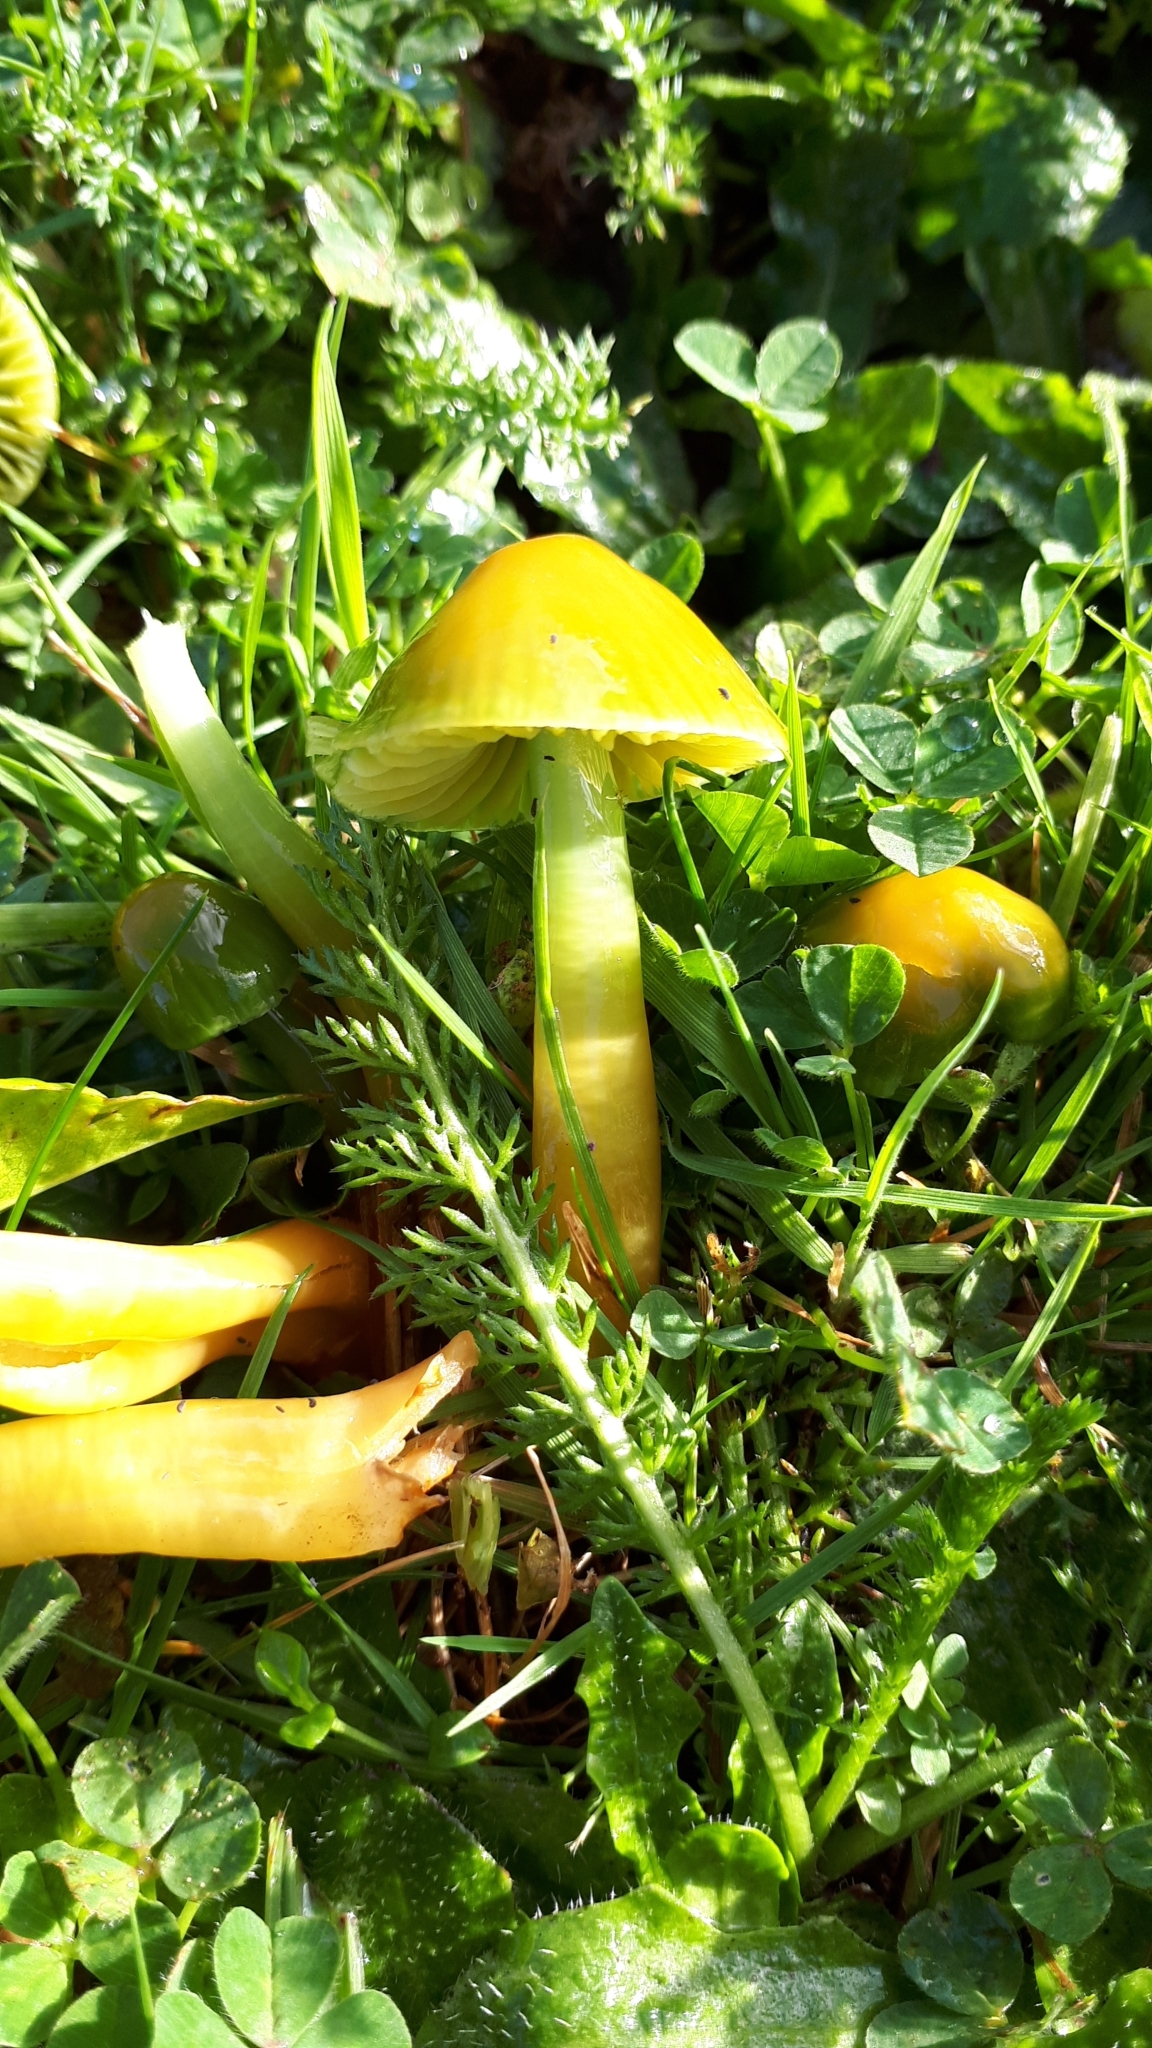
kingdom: Fungi
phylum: Basidiomycota
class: Agaricomycetes
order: Agaricales
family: Hygrophoraceae
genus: Gliophorus
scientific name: Gliophorus psittacinus
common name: Parrot wax-cap
